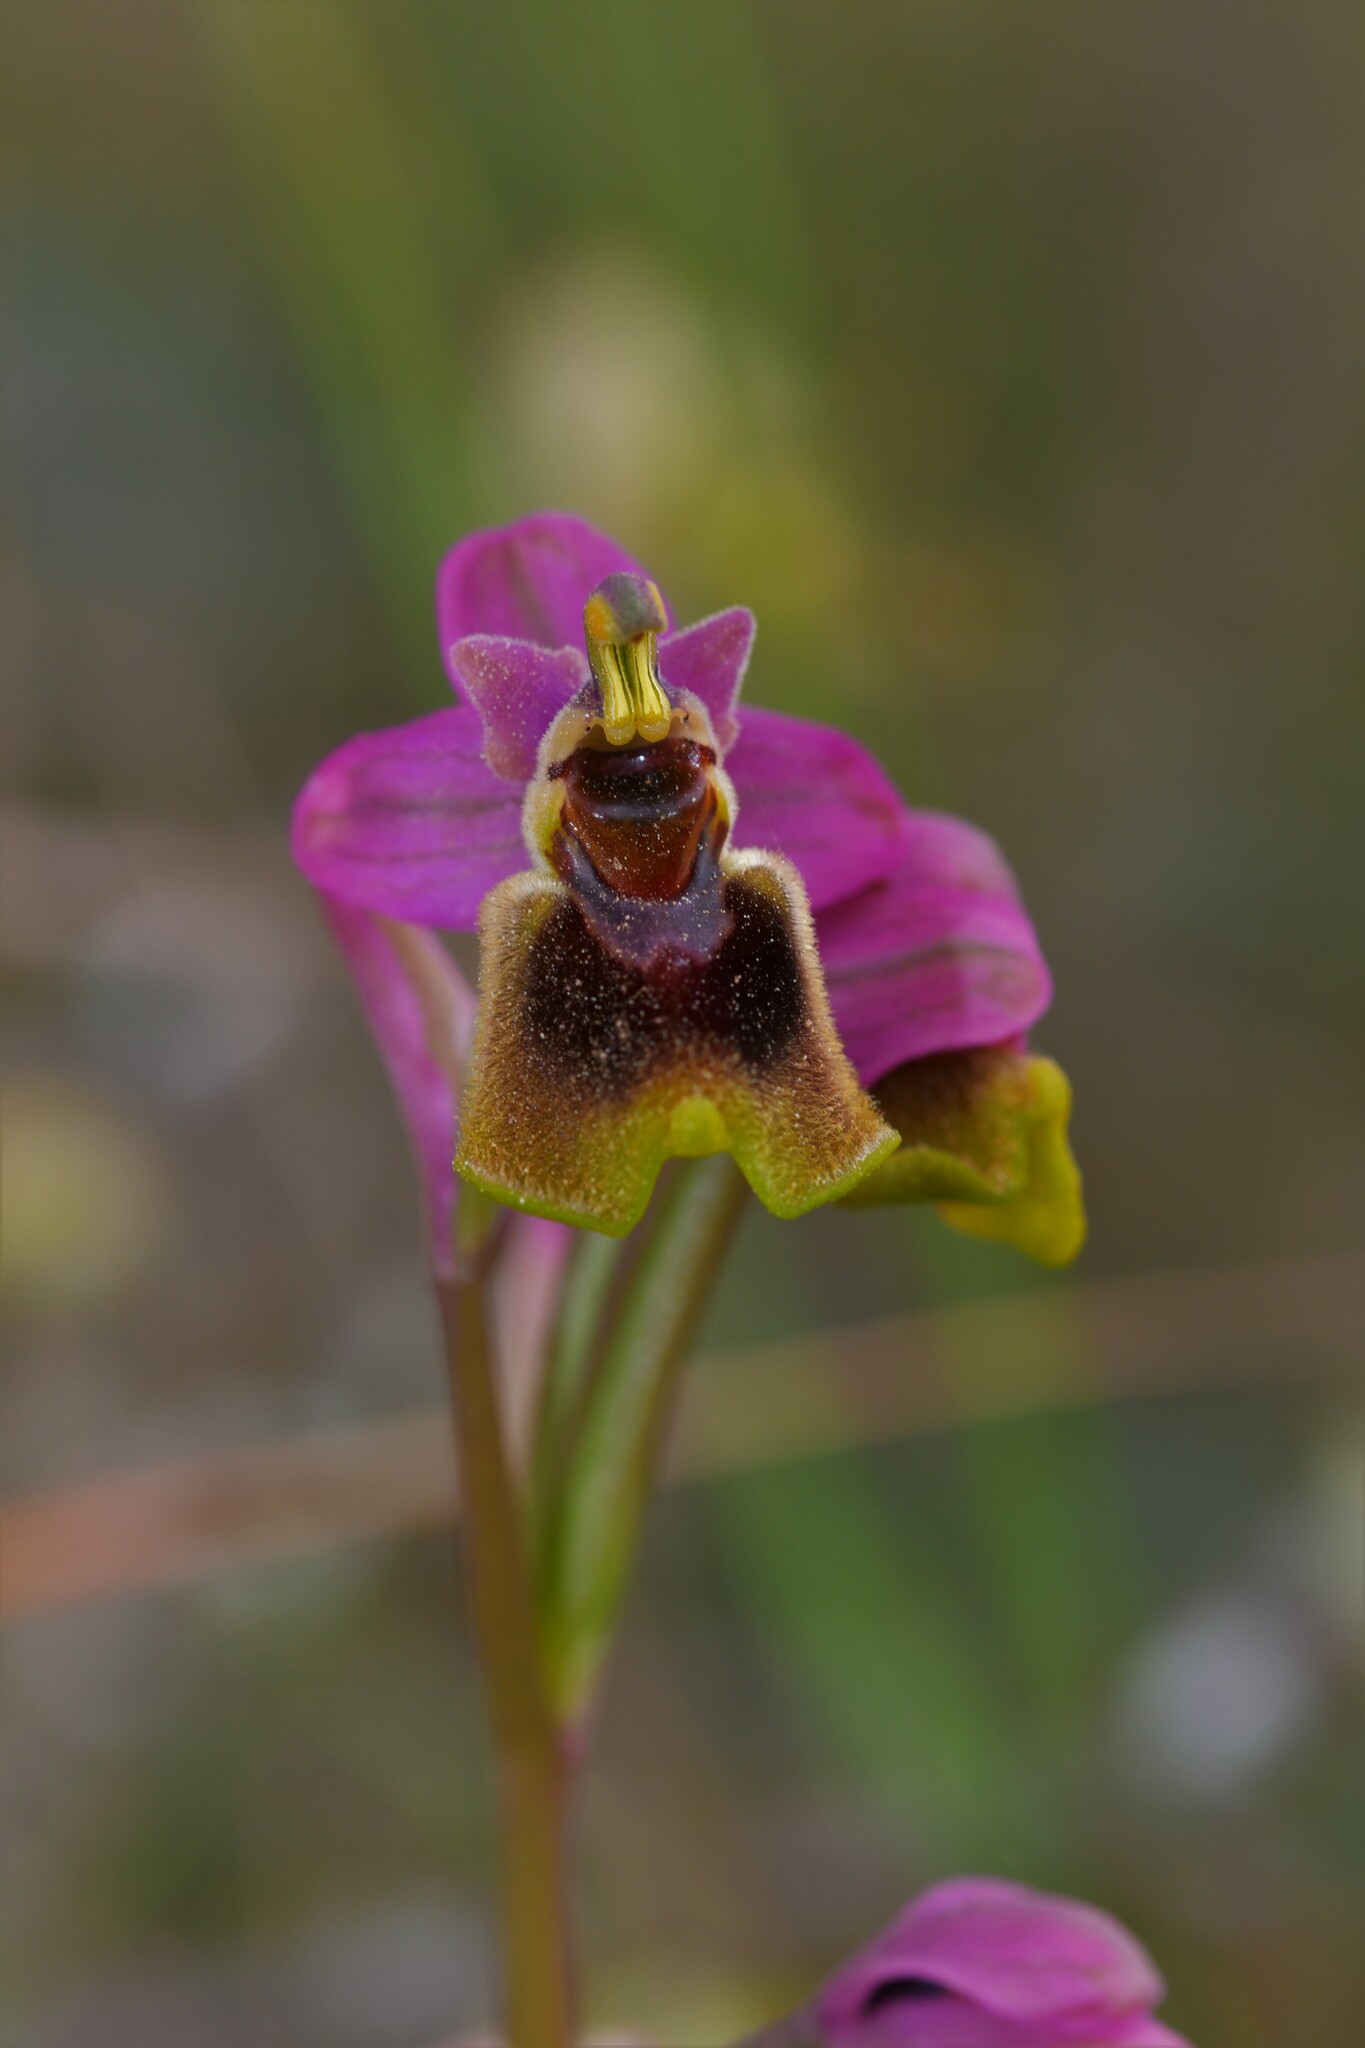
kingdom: Plantae
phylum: Tracheophyta
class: Liliopsida
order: Asparagales
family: Orchidaceae
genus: Ophrys
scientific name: Ophrys tenthredinifera
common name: Sawfly orchid
